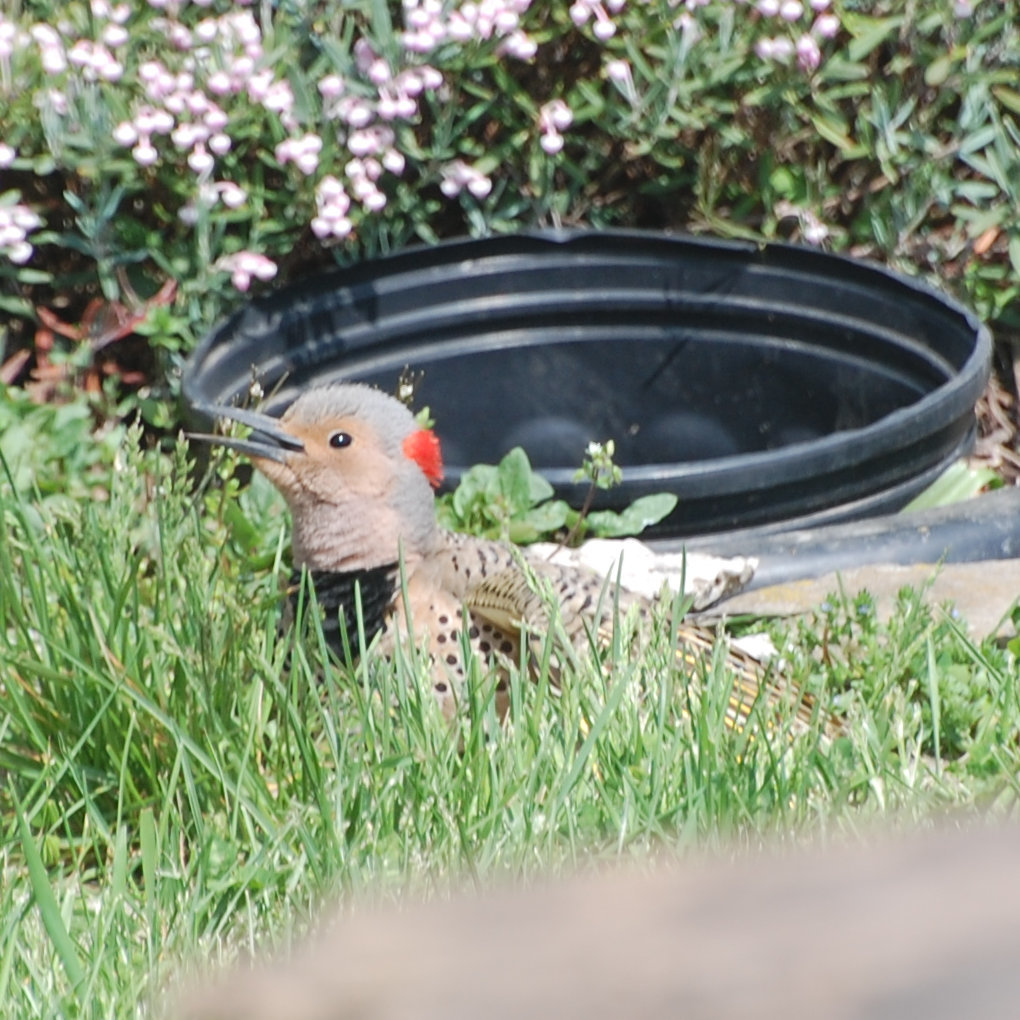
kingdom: Animalia
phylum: Chordata
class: Aves
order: Piciformes
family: Picidae
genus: Colaptes
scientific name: Colaptes auratus
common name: Northern flicker
